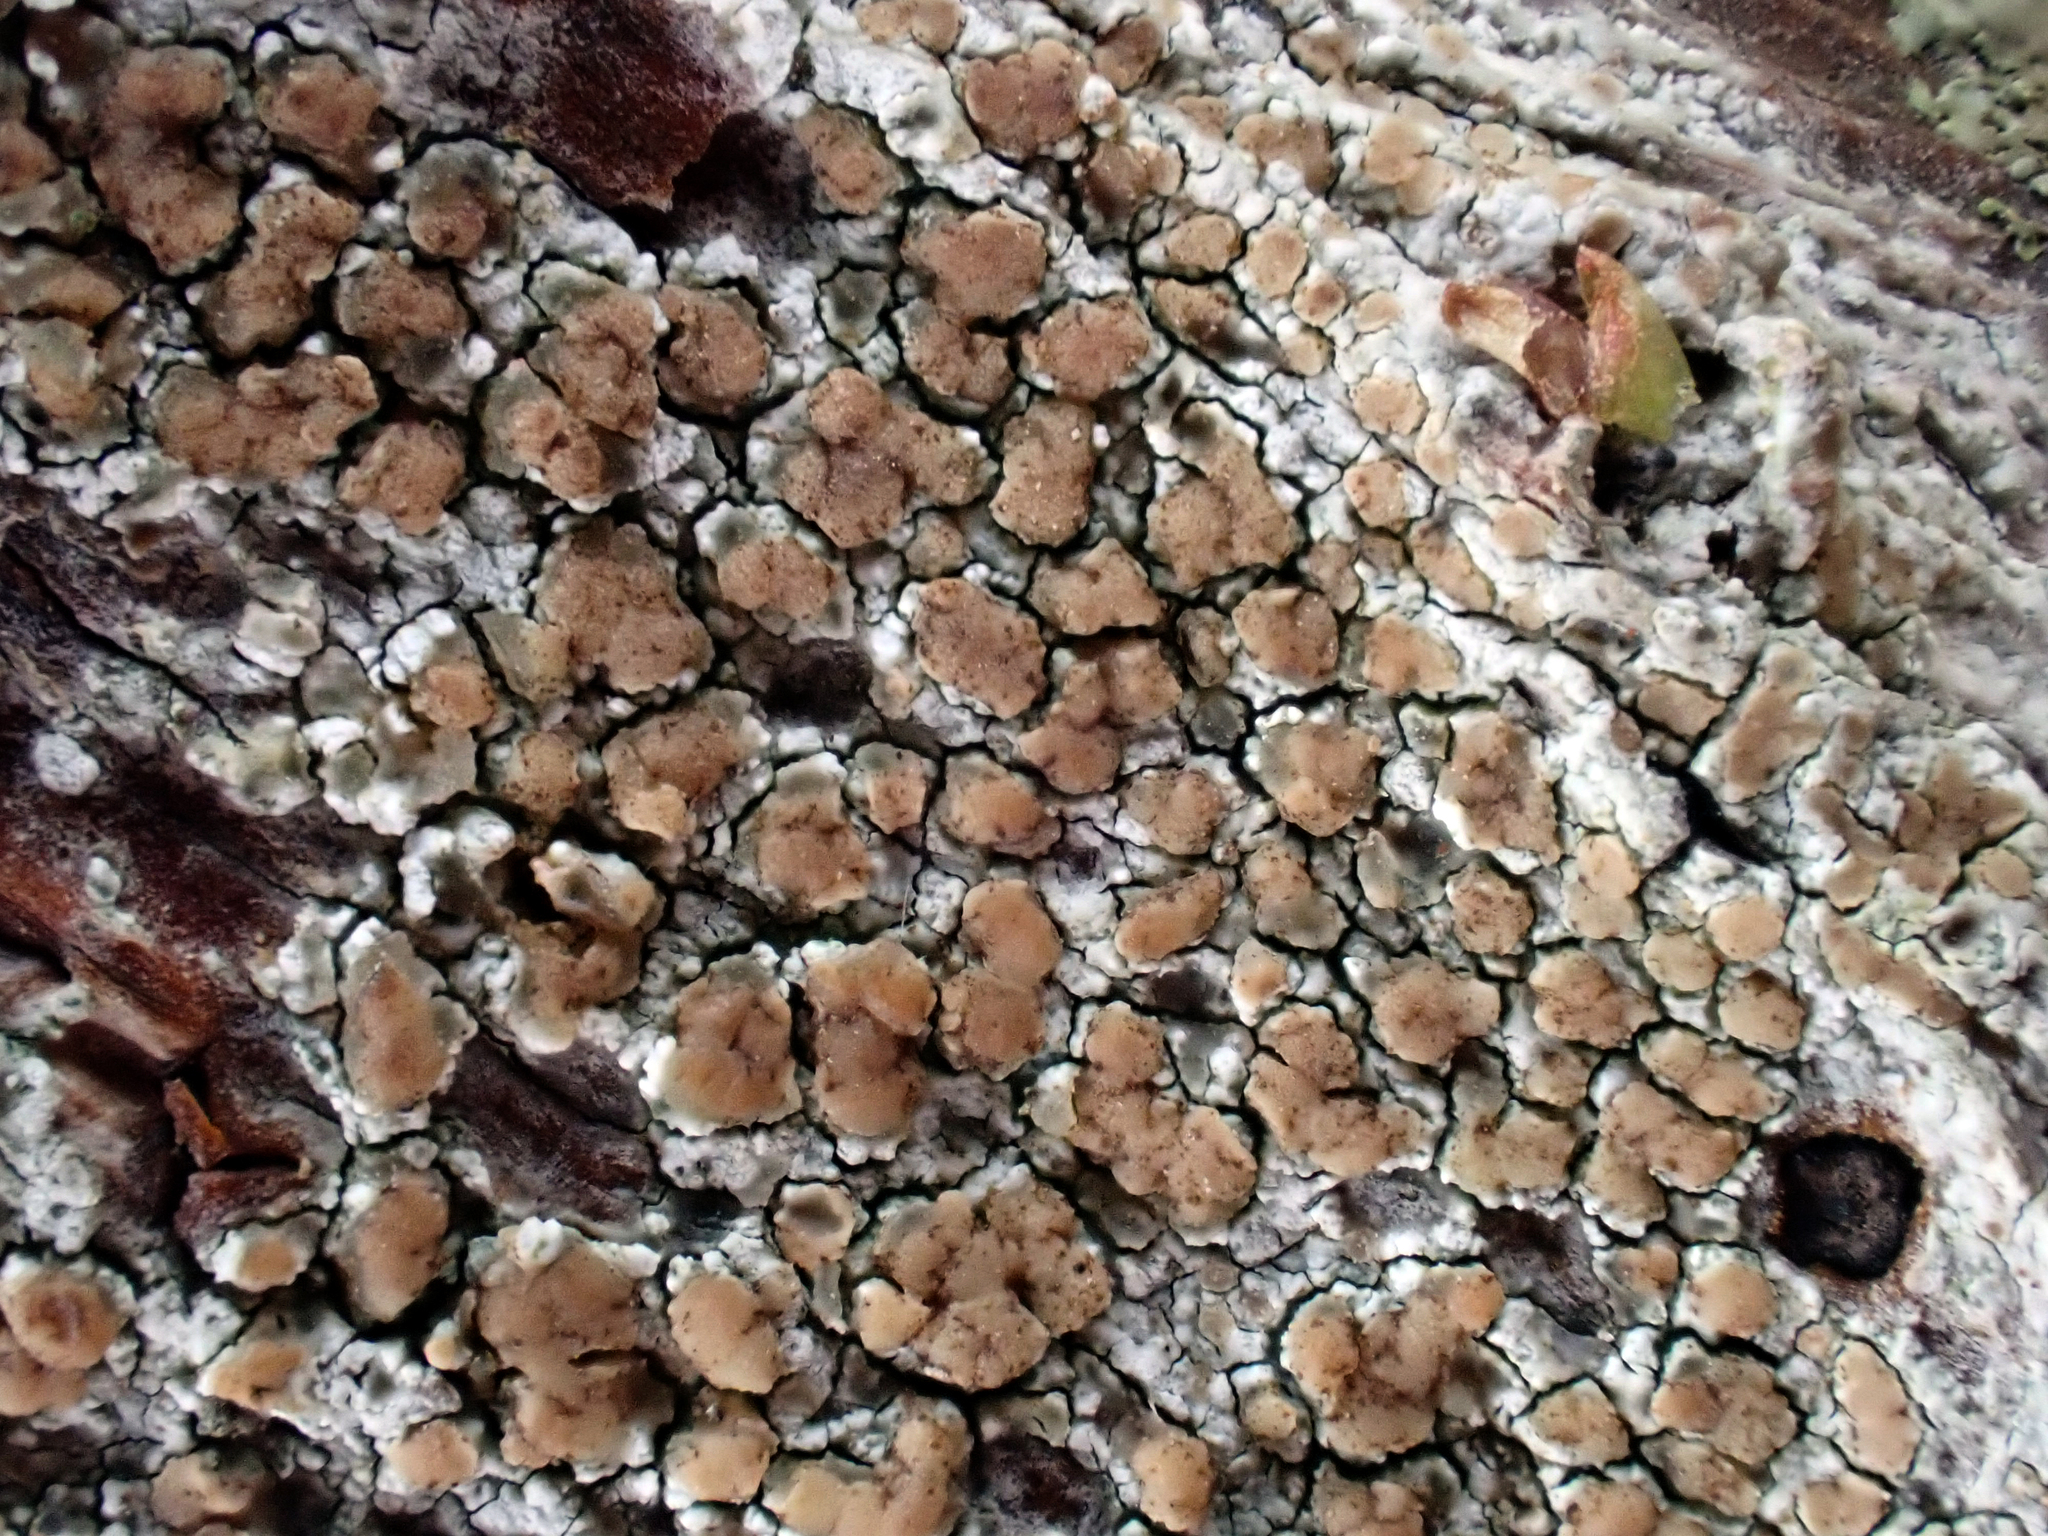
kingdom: Fungi
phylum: Ascomycota
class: Lecanoromycetes
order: Lecanorales
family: Lecanoraceae
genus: Lecanora
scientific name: Lecanora kohu
